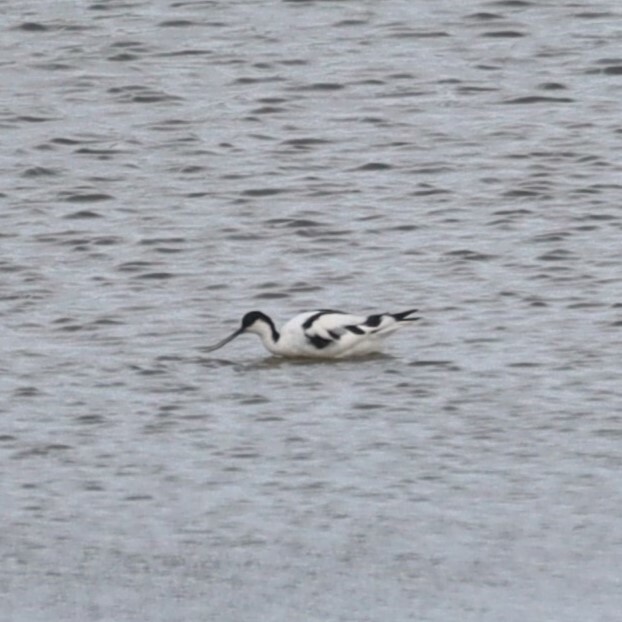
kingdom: Animalia
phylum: Chordata
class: Aves
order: Charadriiformes
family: Recurvirostridae
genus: Recurvirostra
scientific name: Recurvirostra avosetta
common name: Pied avocet
